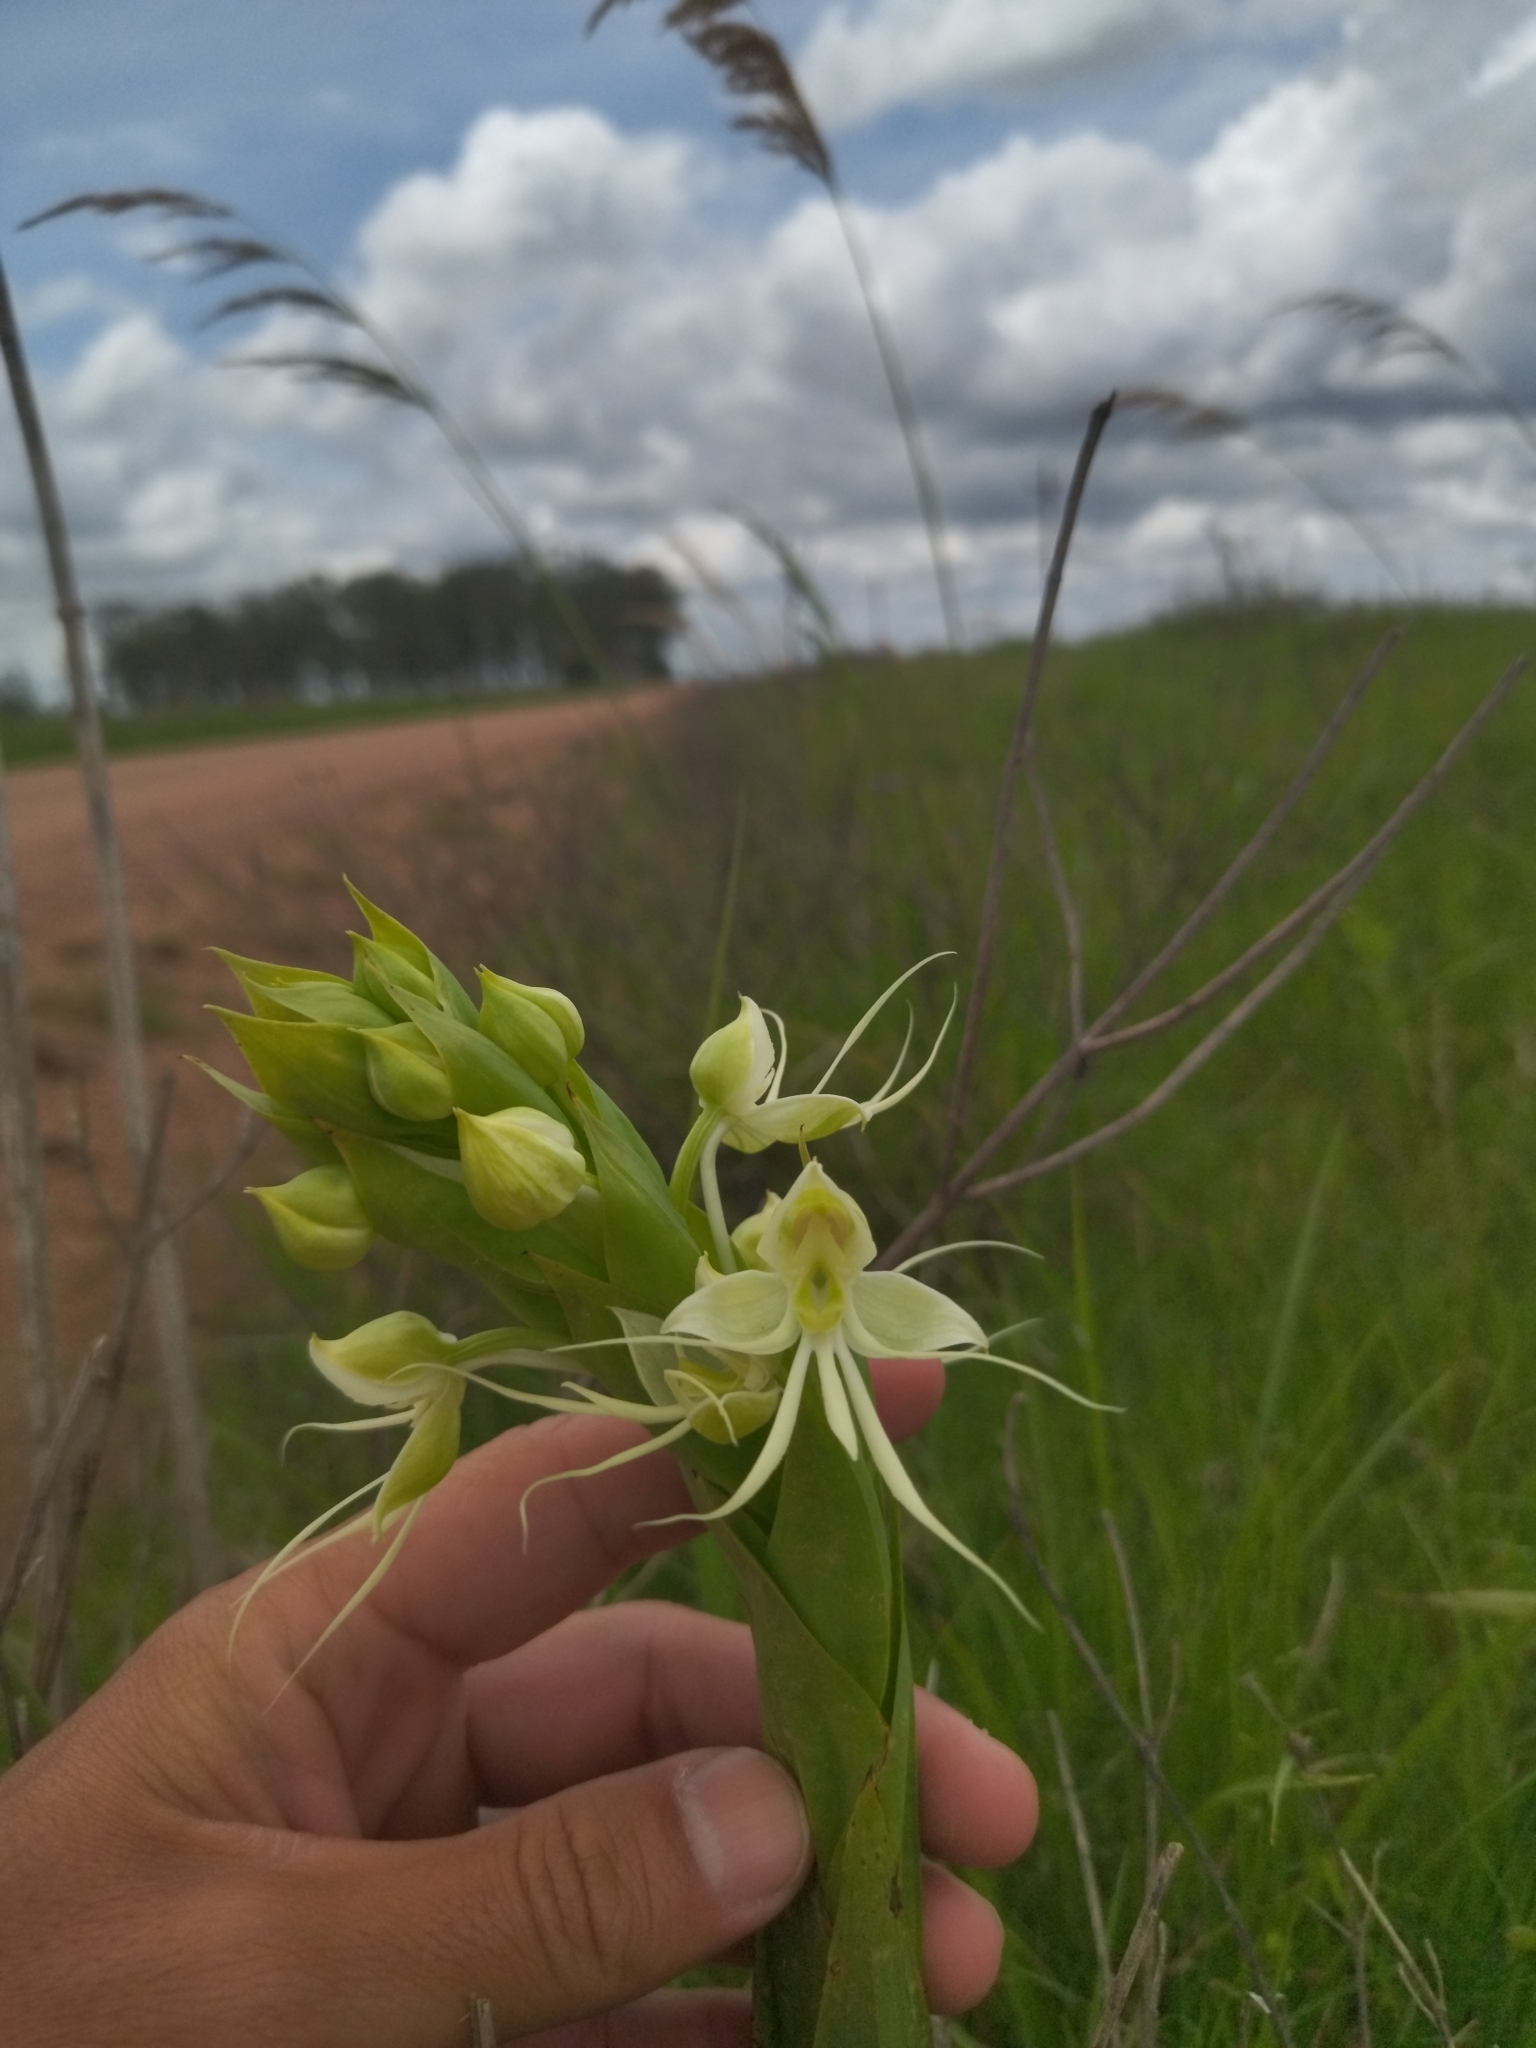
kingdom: Plantae
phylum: Tracheophyta
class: Liliopsida
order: Asparagales
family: Orchidaceae
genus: Habenaria
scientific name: Habenaria gourlieana
